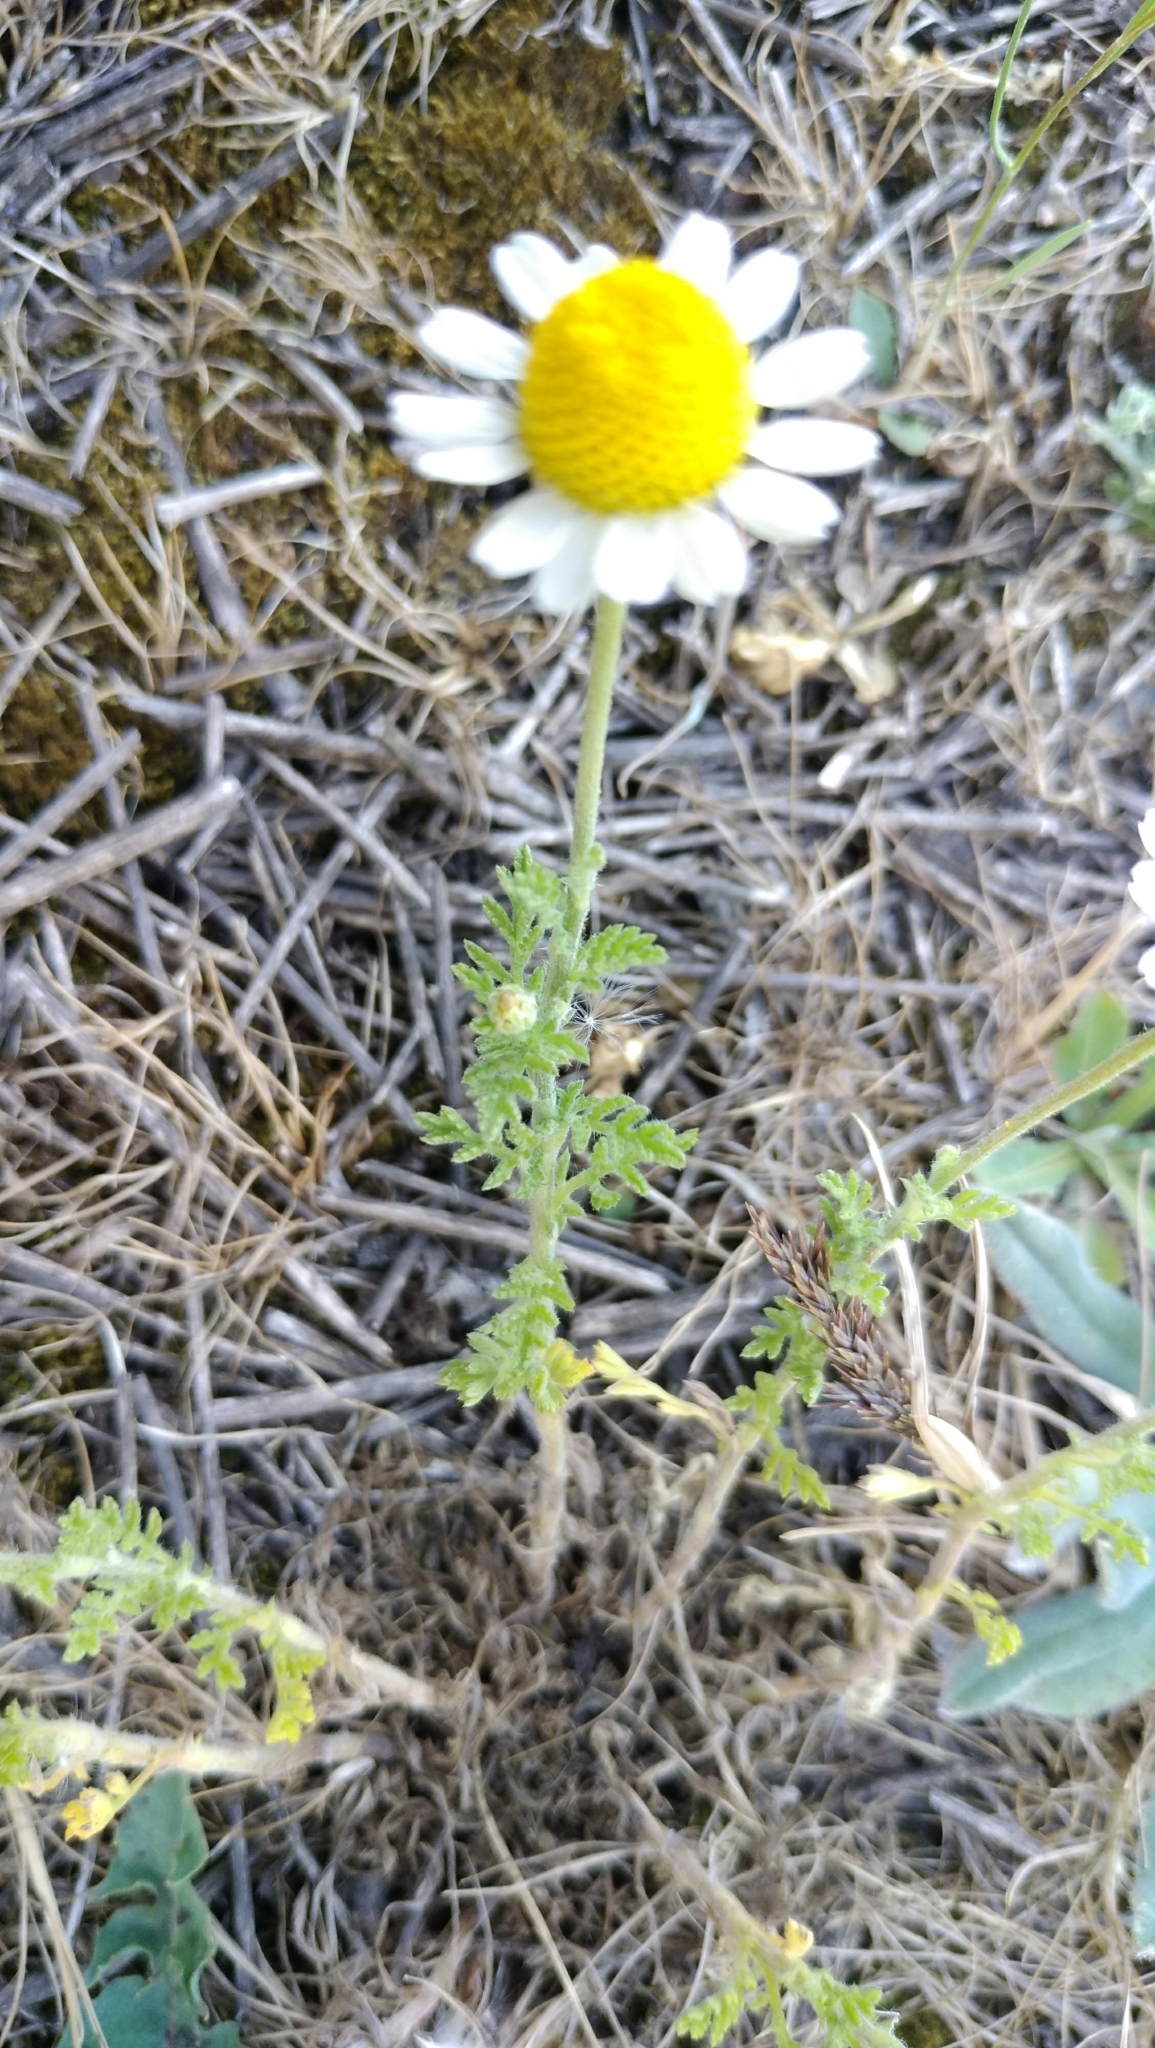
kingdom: Plantae
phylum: Tracheophyta
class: Magnoliopsida
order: Asterales
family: Asteraceae
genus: Anthemis
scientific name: Anthemis ruthenica
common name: Eastern chamomile
